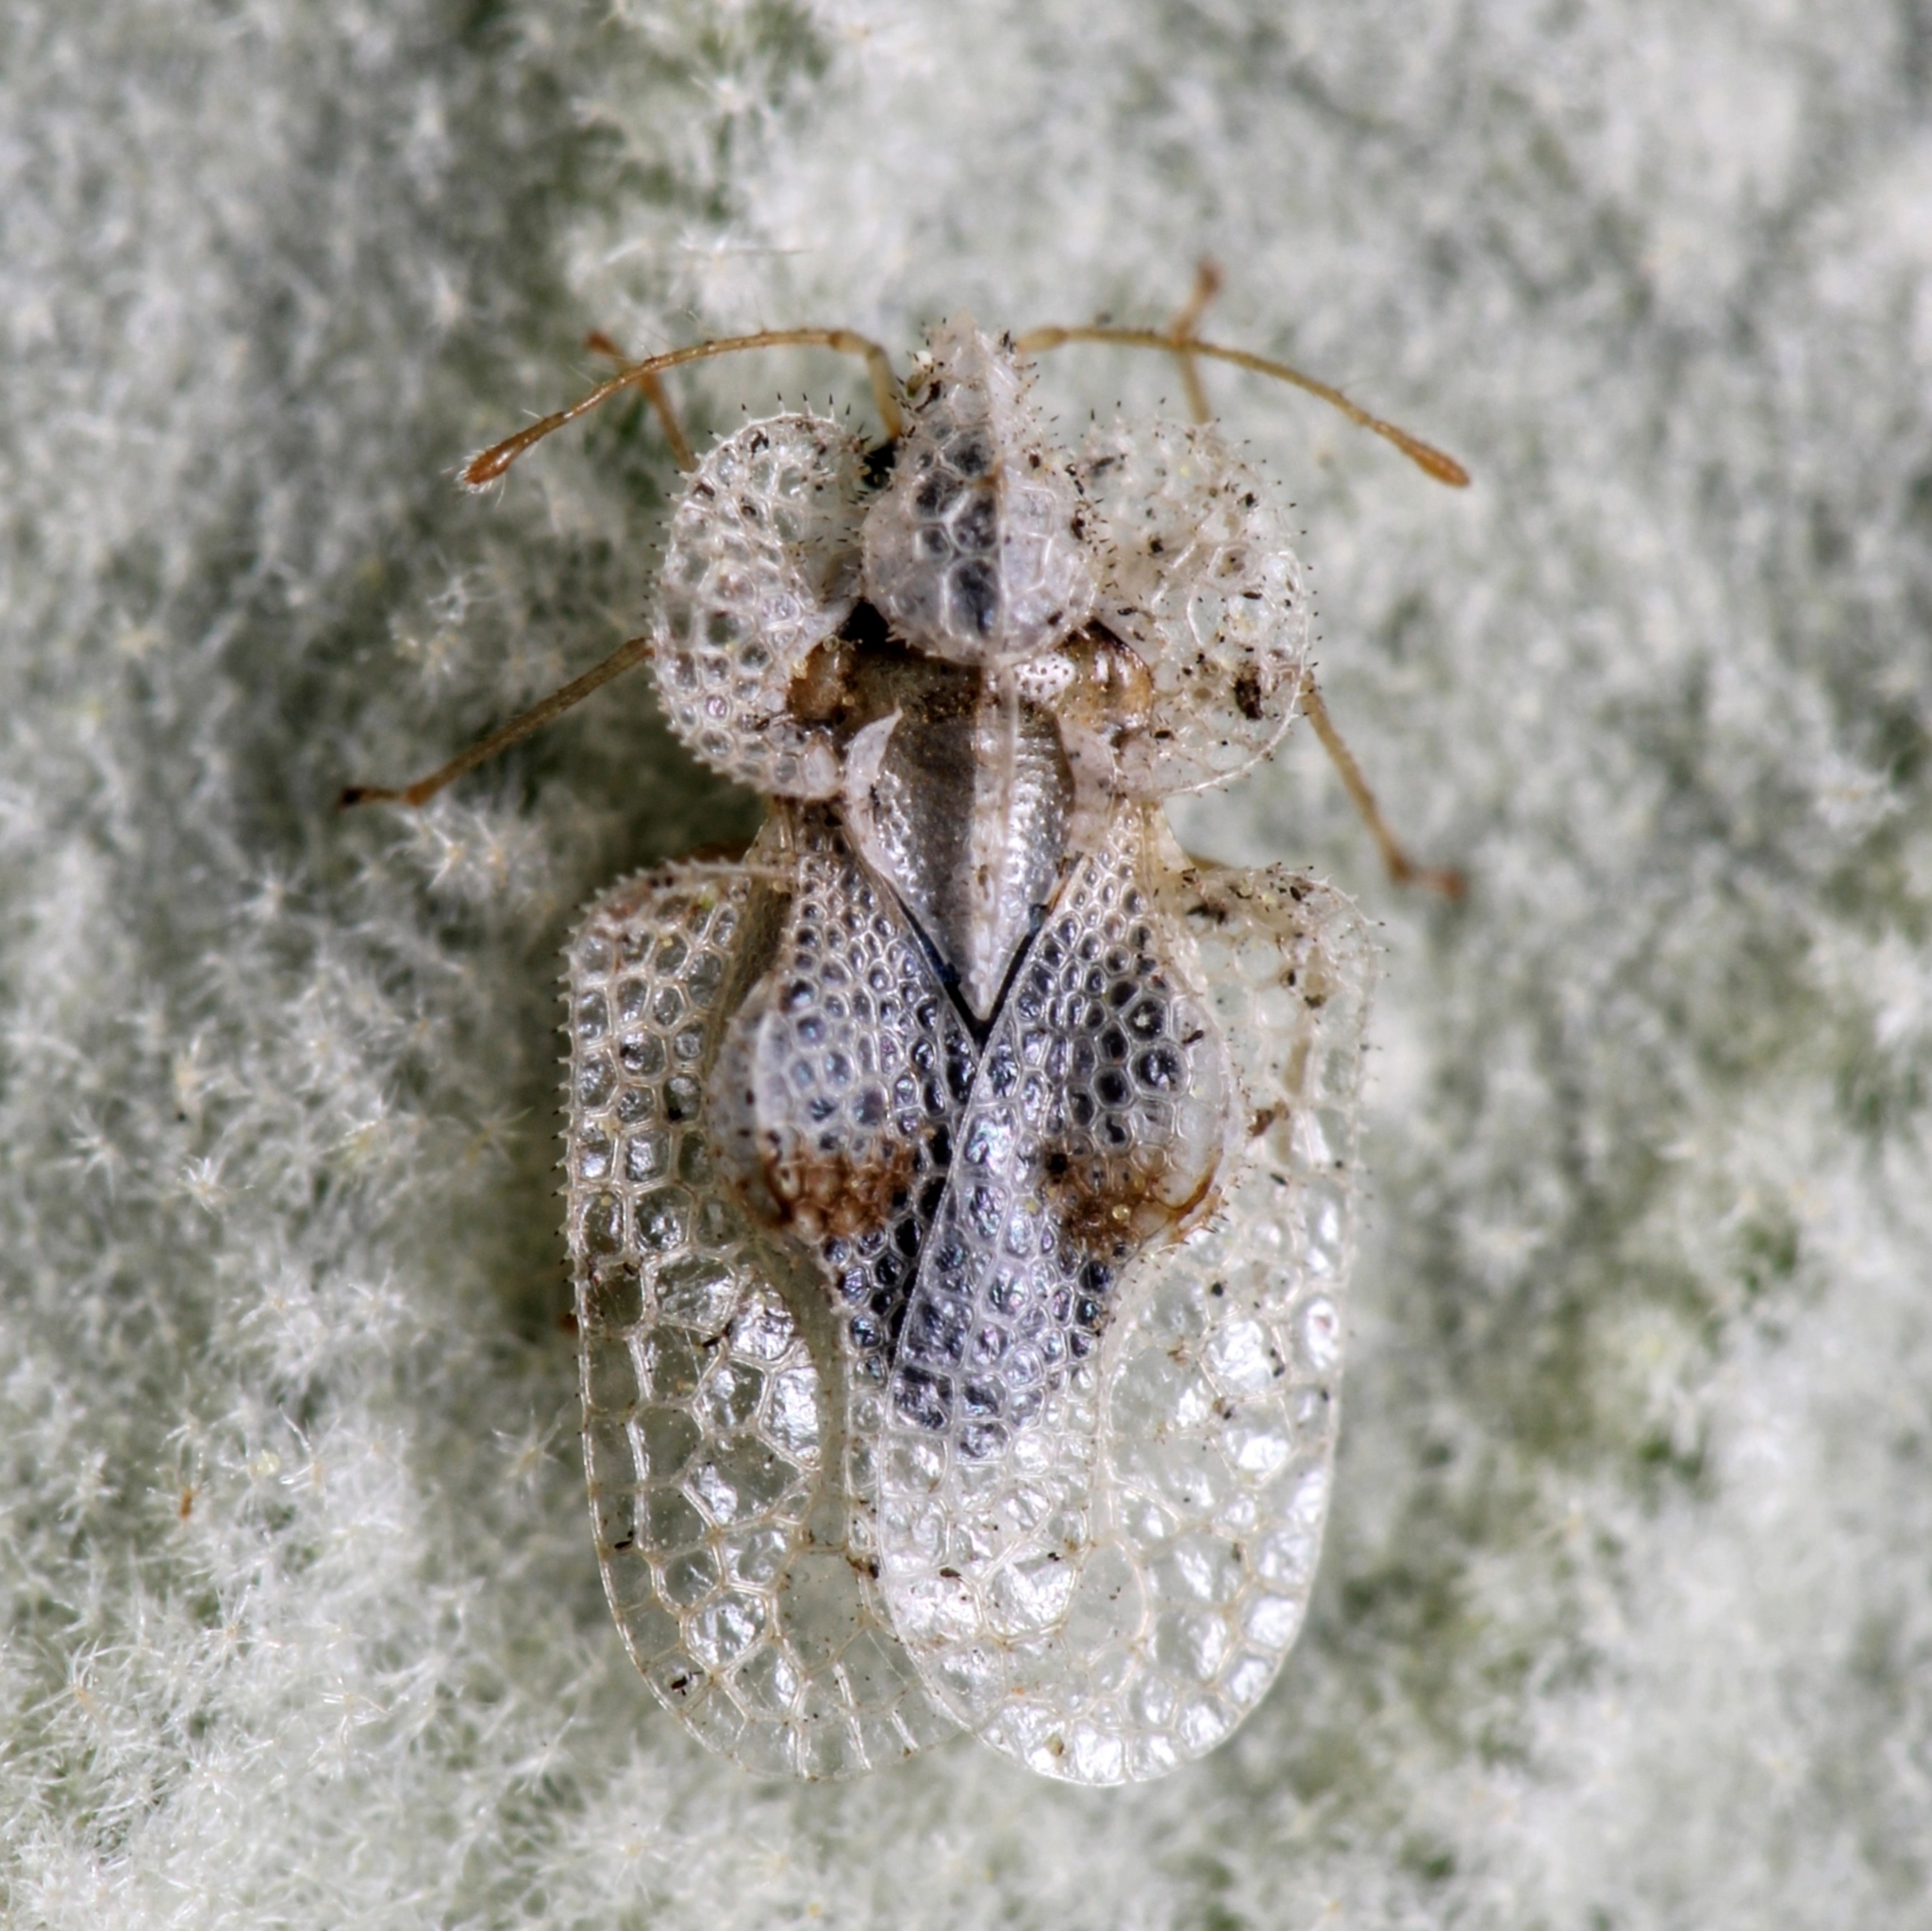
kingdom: Animalia
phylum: Arthropoda
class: Insecta
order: Hemiptera
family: Tingidae
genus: Corythucha
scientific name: Corythucha ciliata
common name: Sycamore lace bug
